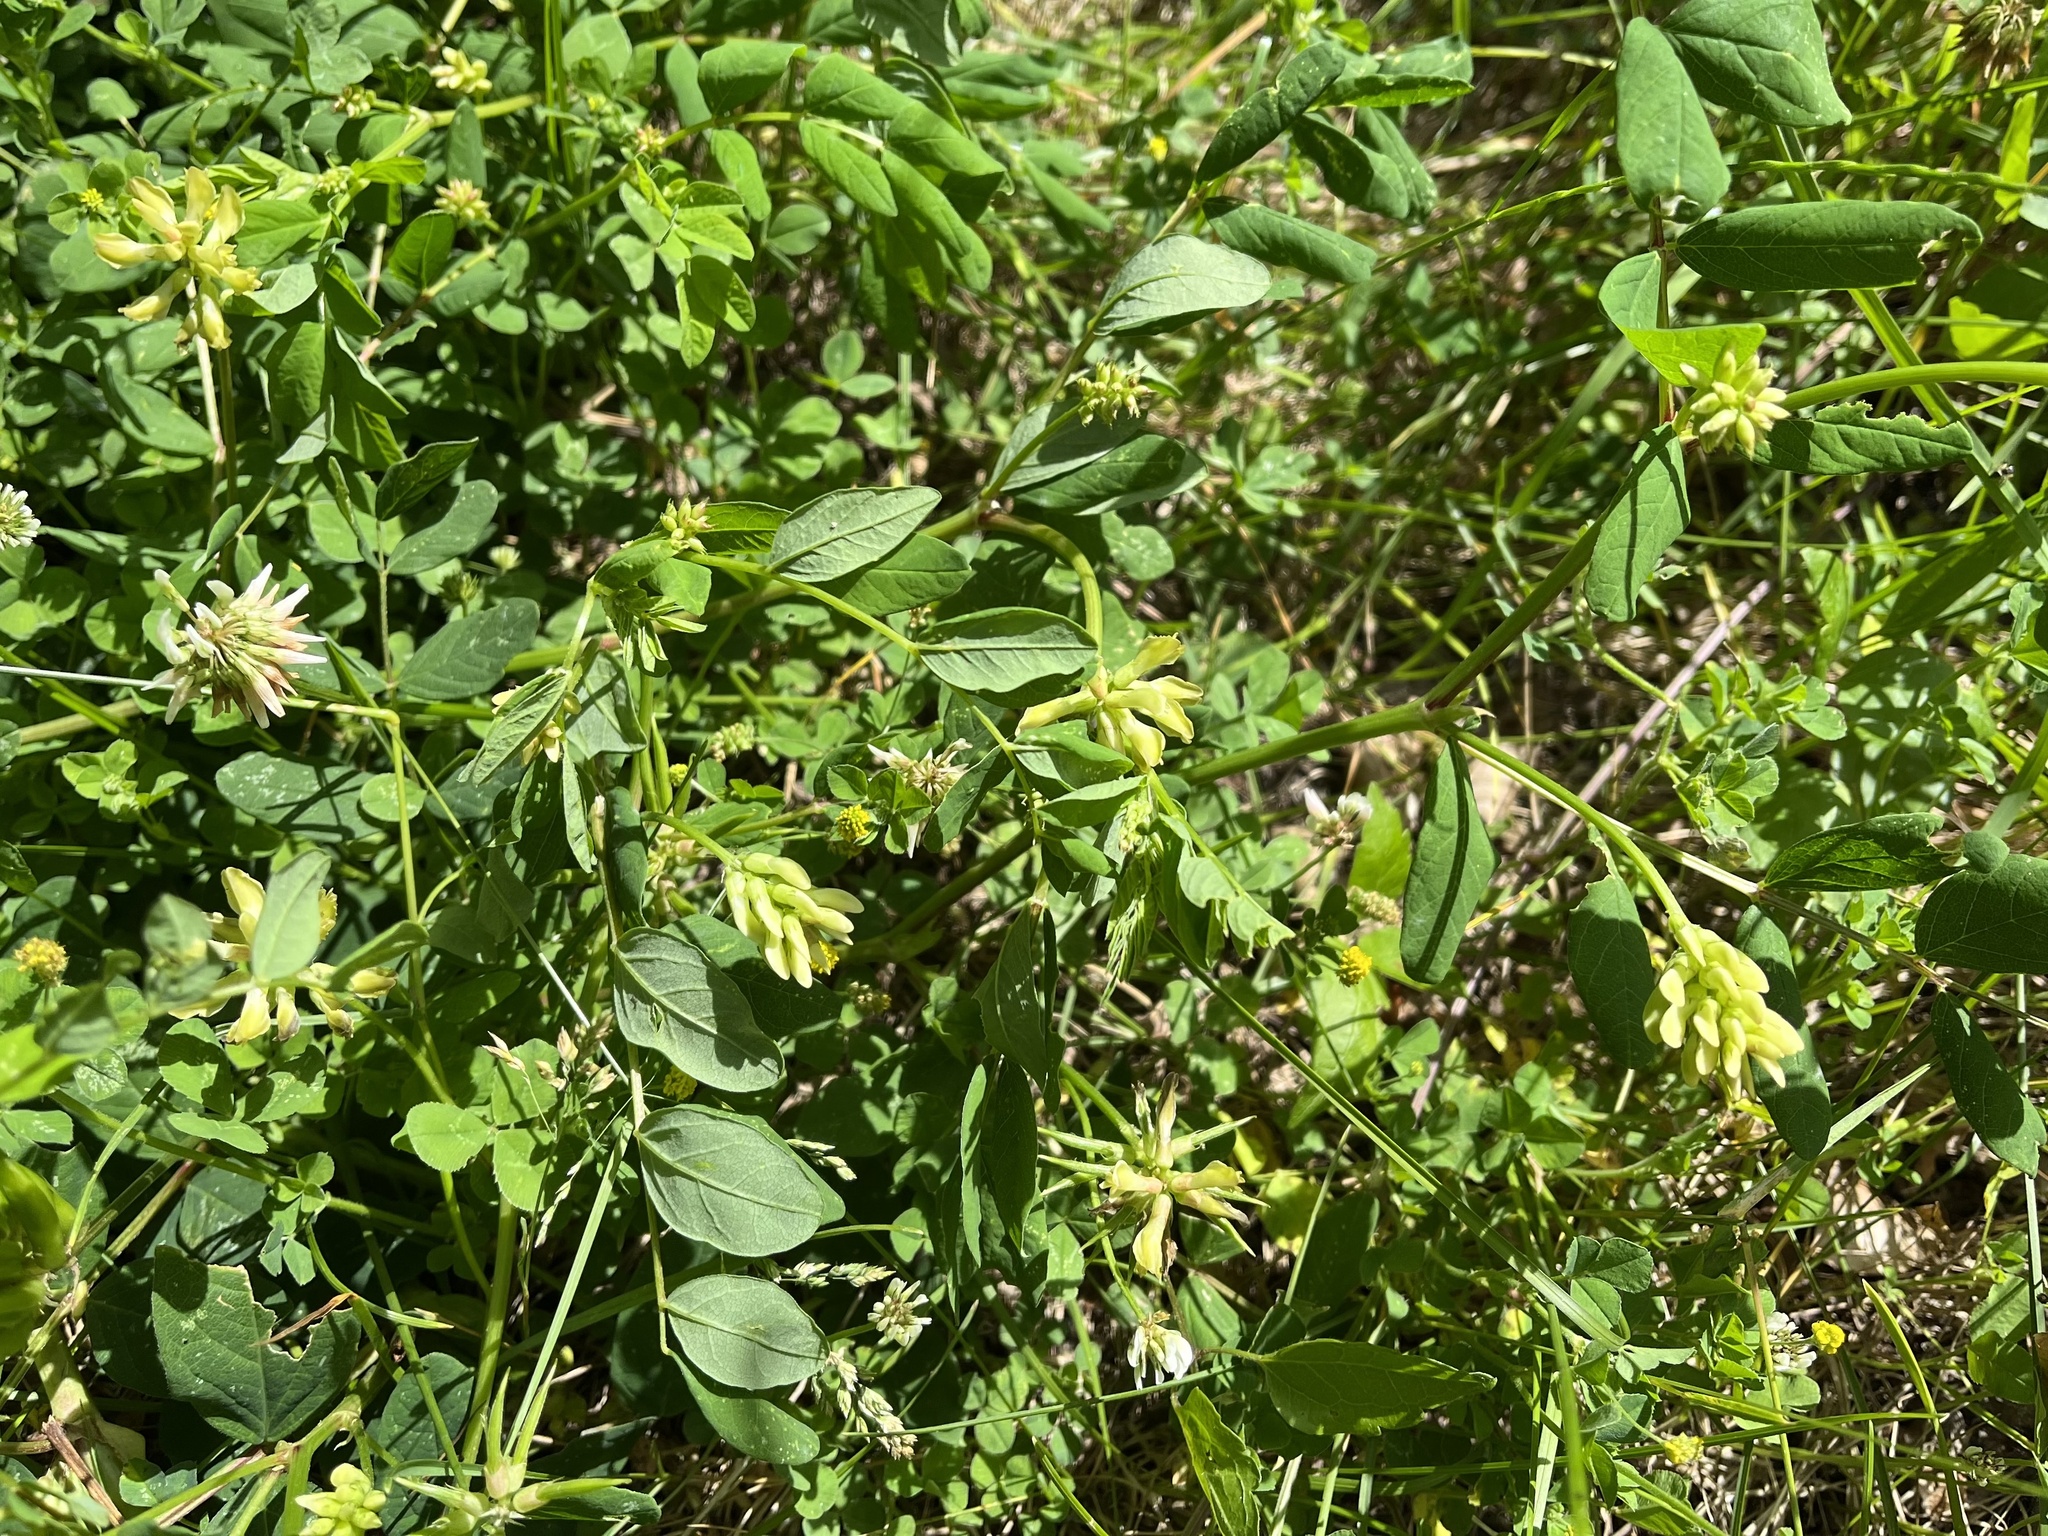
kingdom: Plantae
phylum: Tracheophyta
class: Magnoliopsida
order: Fabales
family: Fabaceae
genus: Astragalus
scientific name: Astragalus glycyphyllos
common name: Wild liquorice
